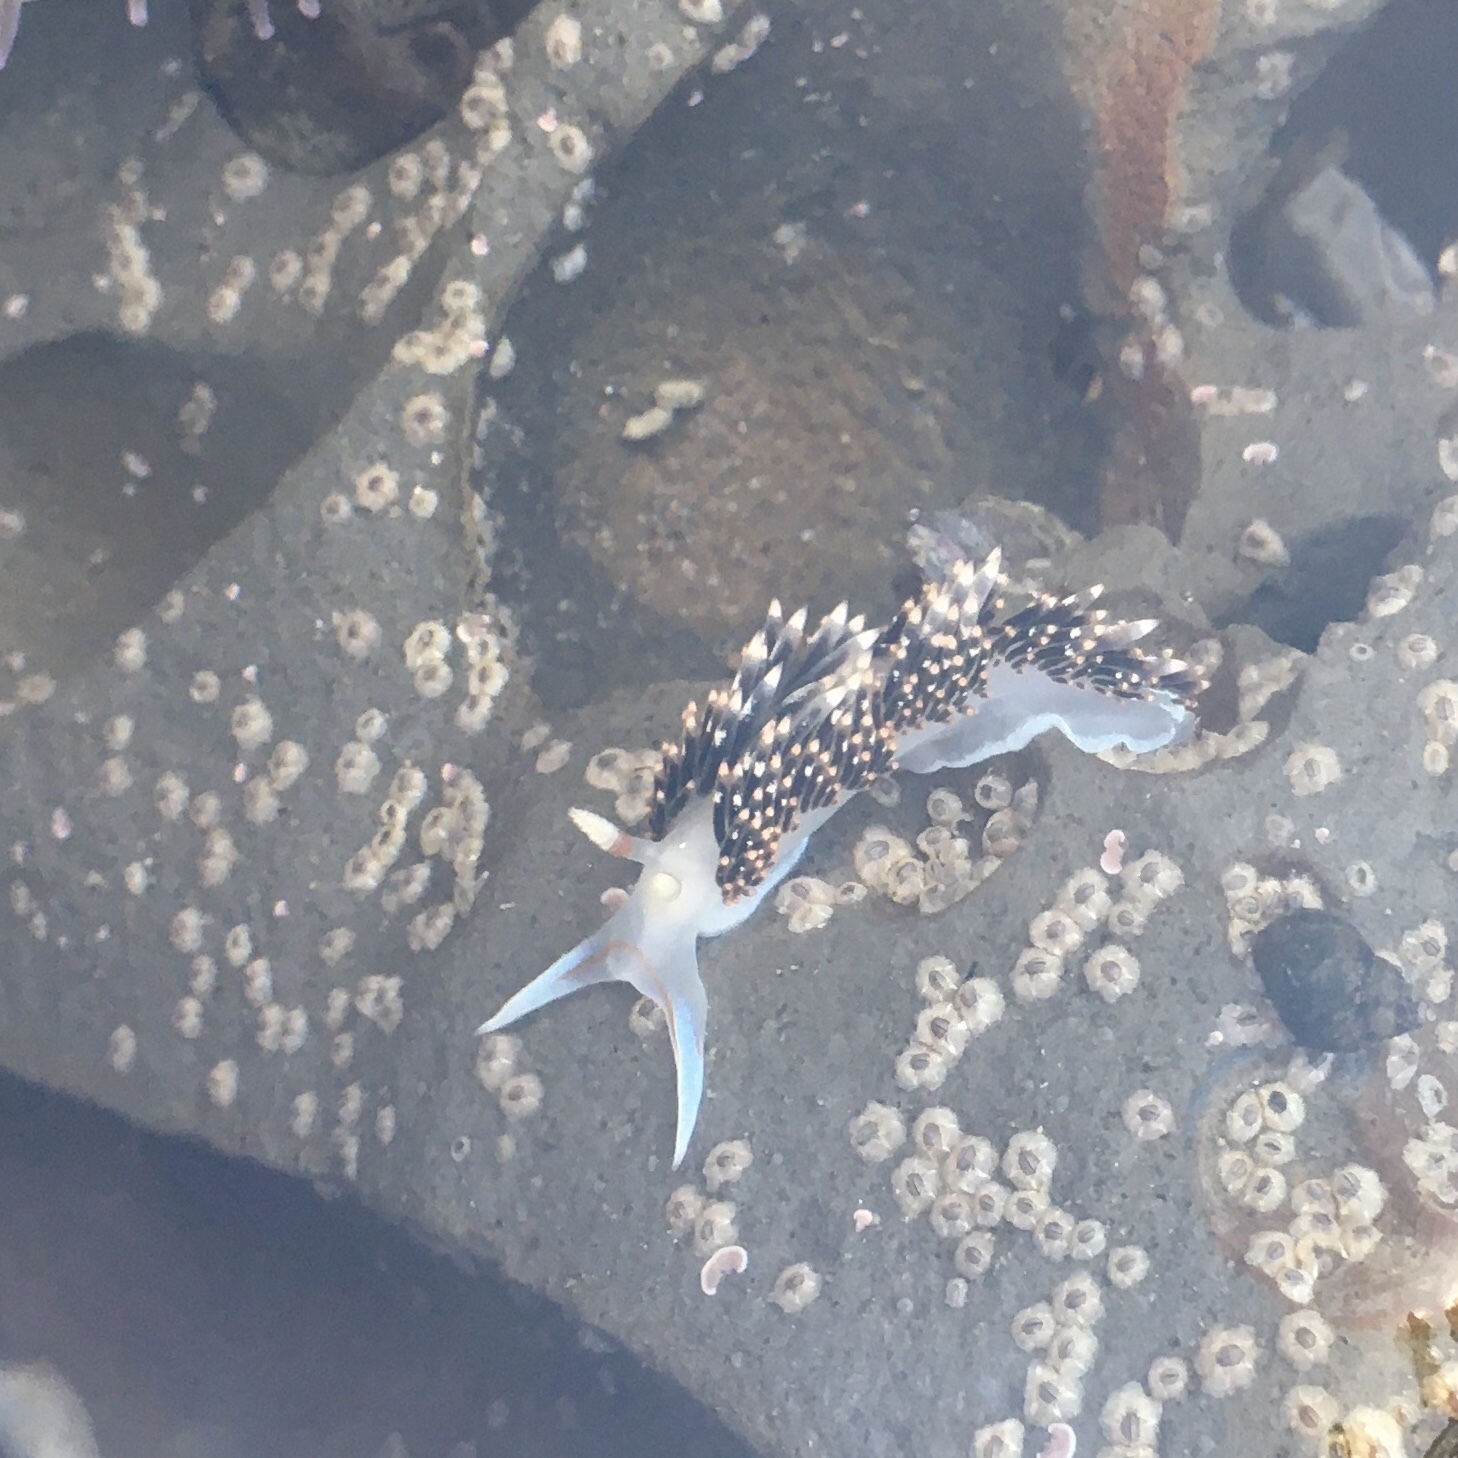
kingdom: Animalia
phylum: Mollusca
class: Gastropoda
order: Nudibranchia
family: Facelinidae
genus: Phidiana
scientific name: Phidiana hiltoni
